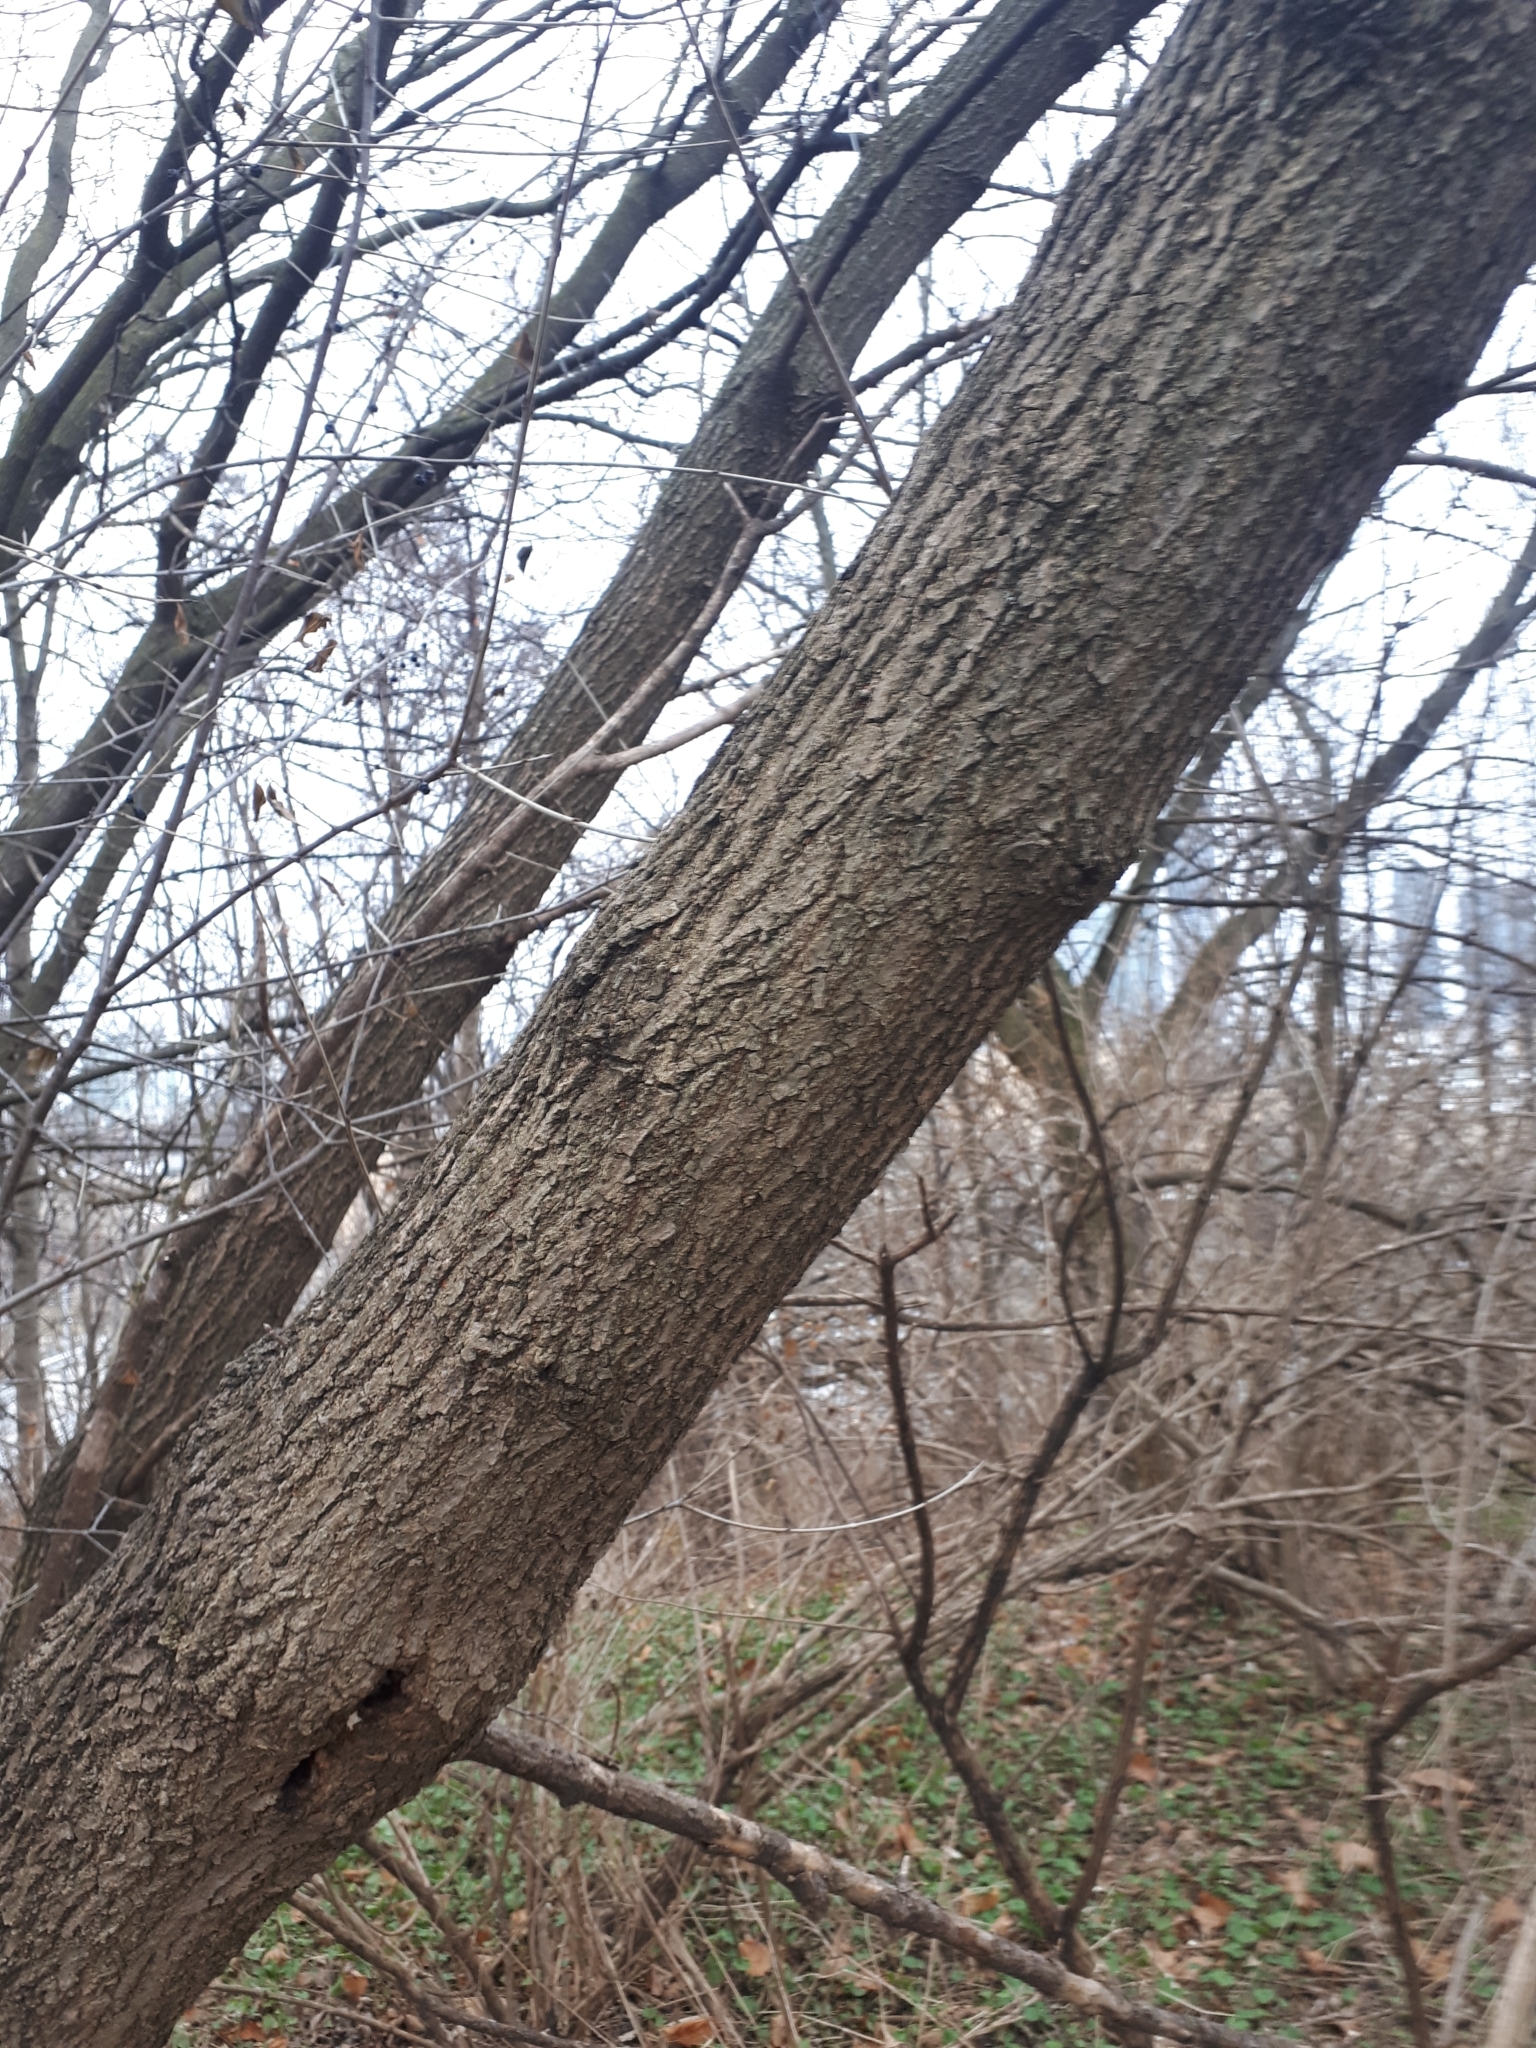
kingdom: Plantae
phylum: Tracheophyta
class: Magnoliopsida
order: Sapindales
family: Sapindaceae
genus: Acer
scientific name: Acer negundo
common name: Ashleaf maple
